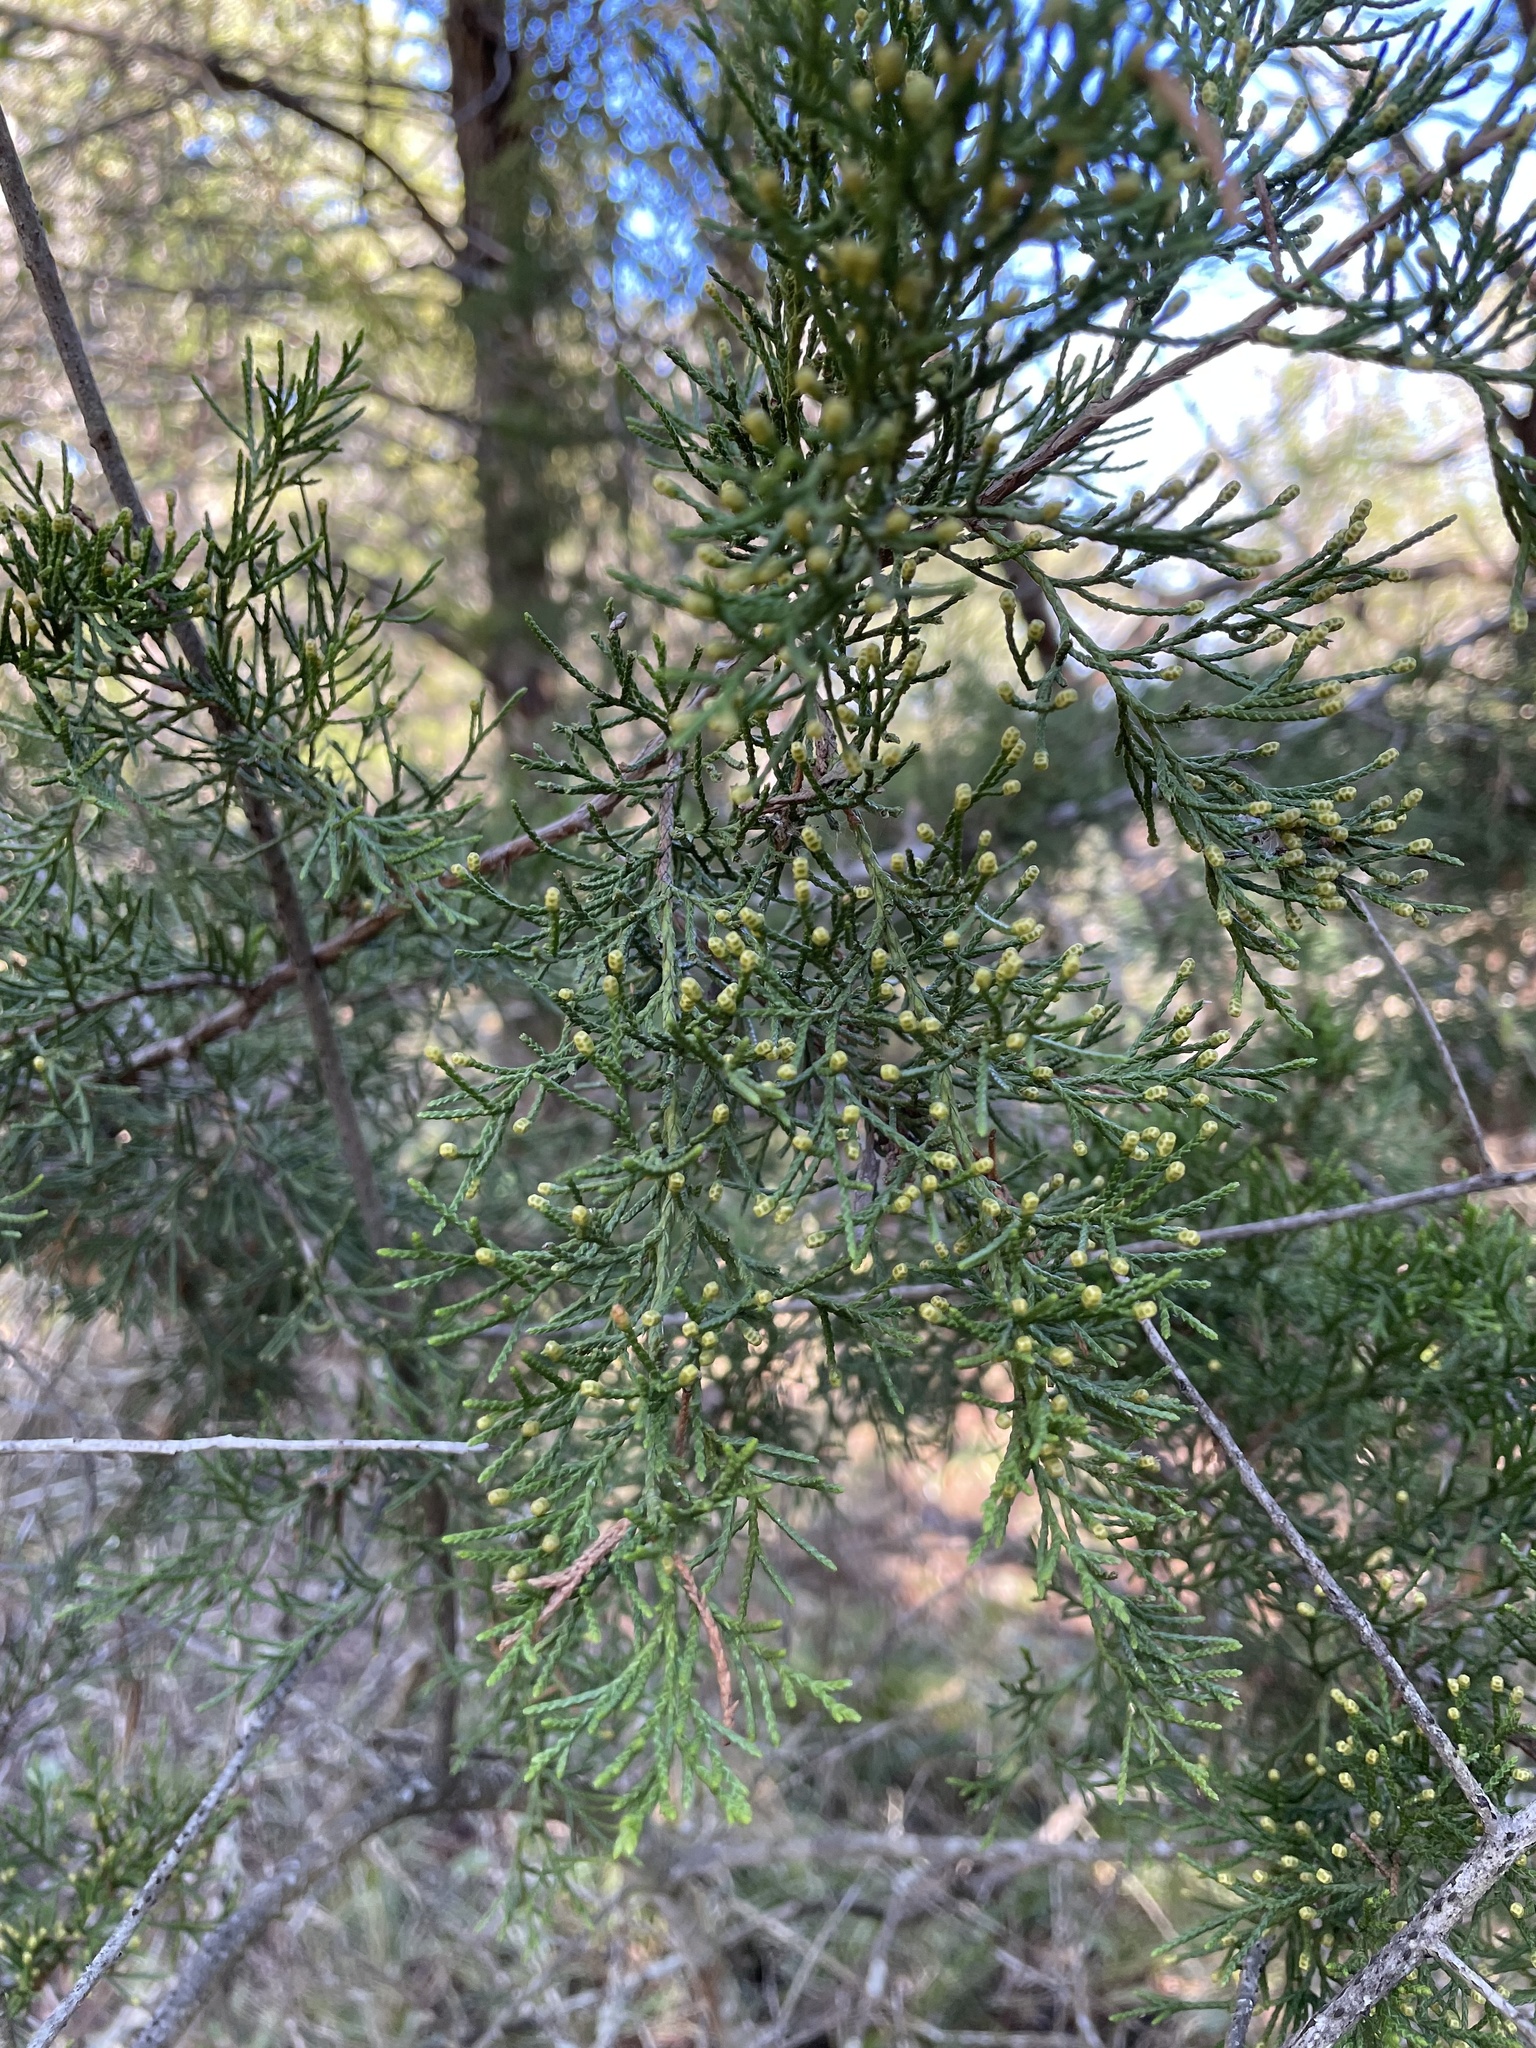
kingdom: Plantae
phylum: Tracheophyta
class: Pinopsida
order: Pinales
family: Cupressaceae
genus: Juniperus
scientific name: Juniperus virginiana
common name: Red juniper
